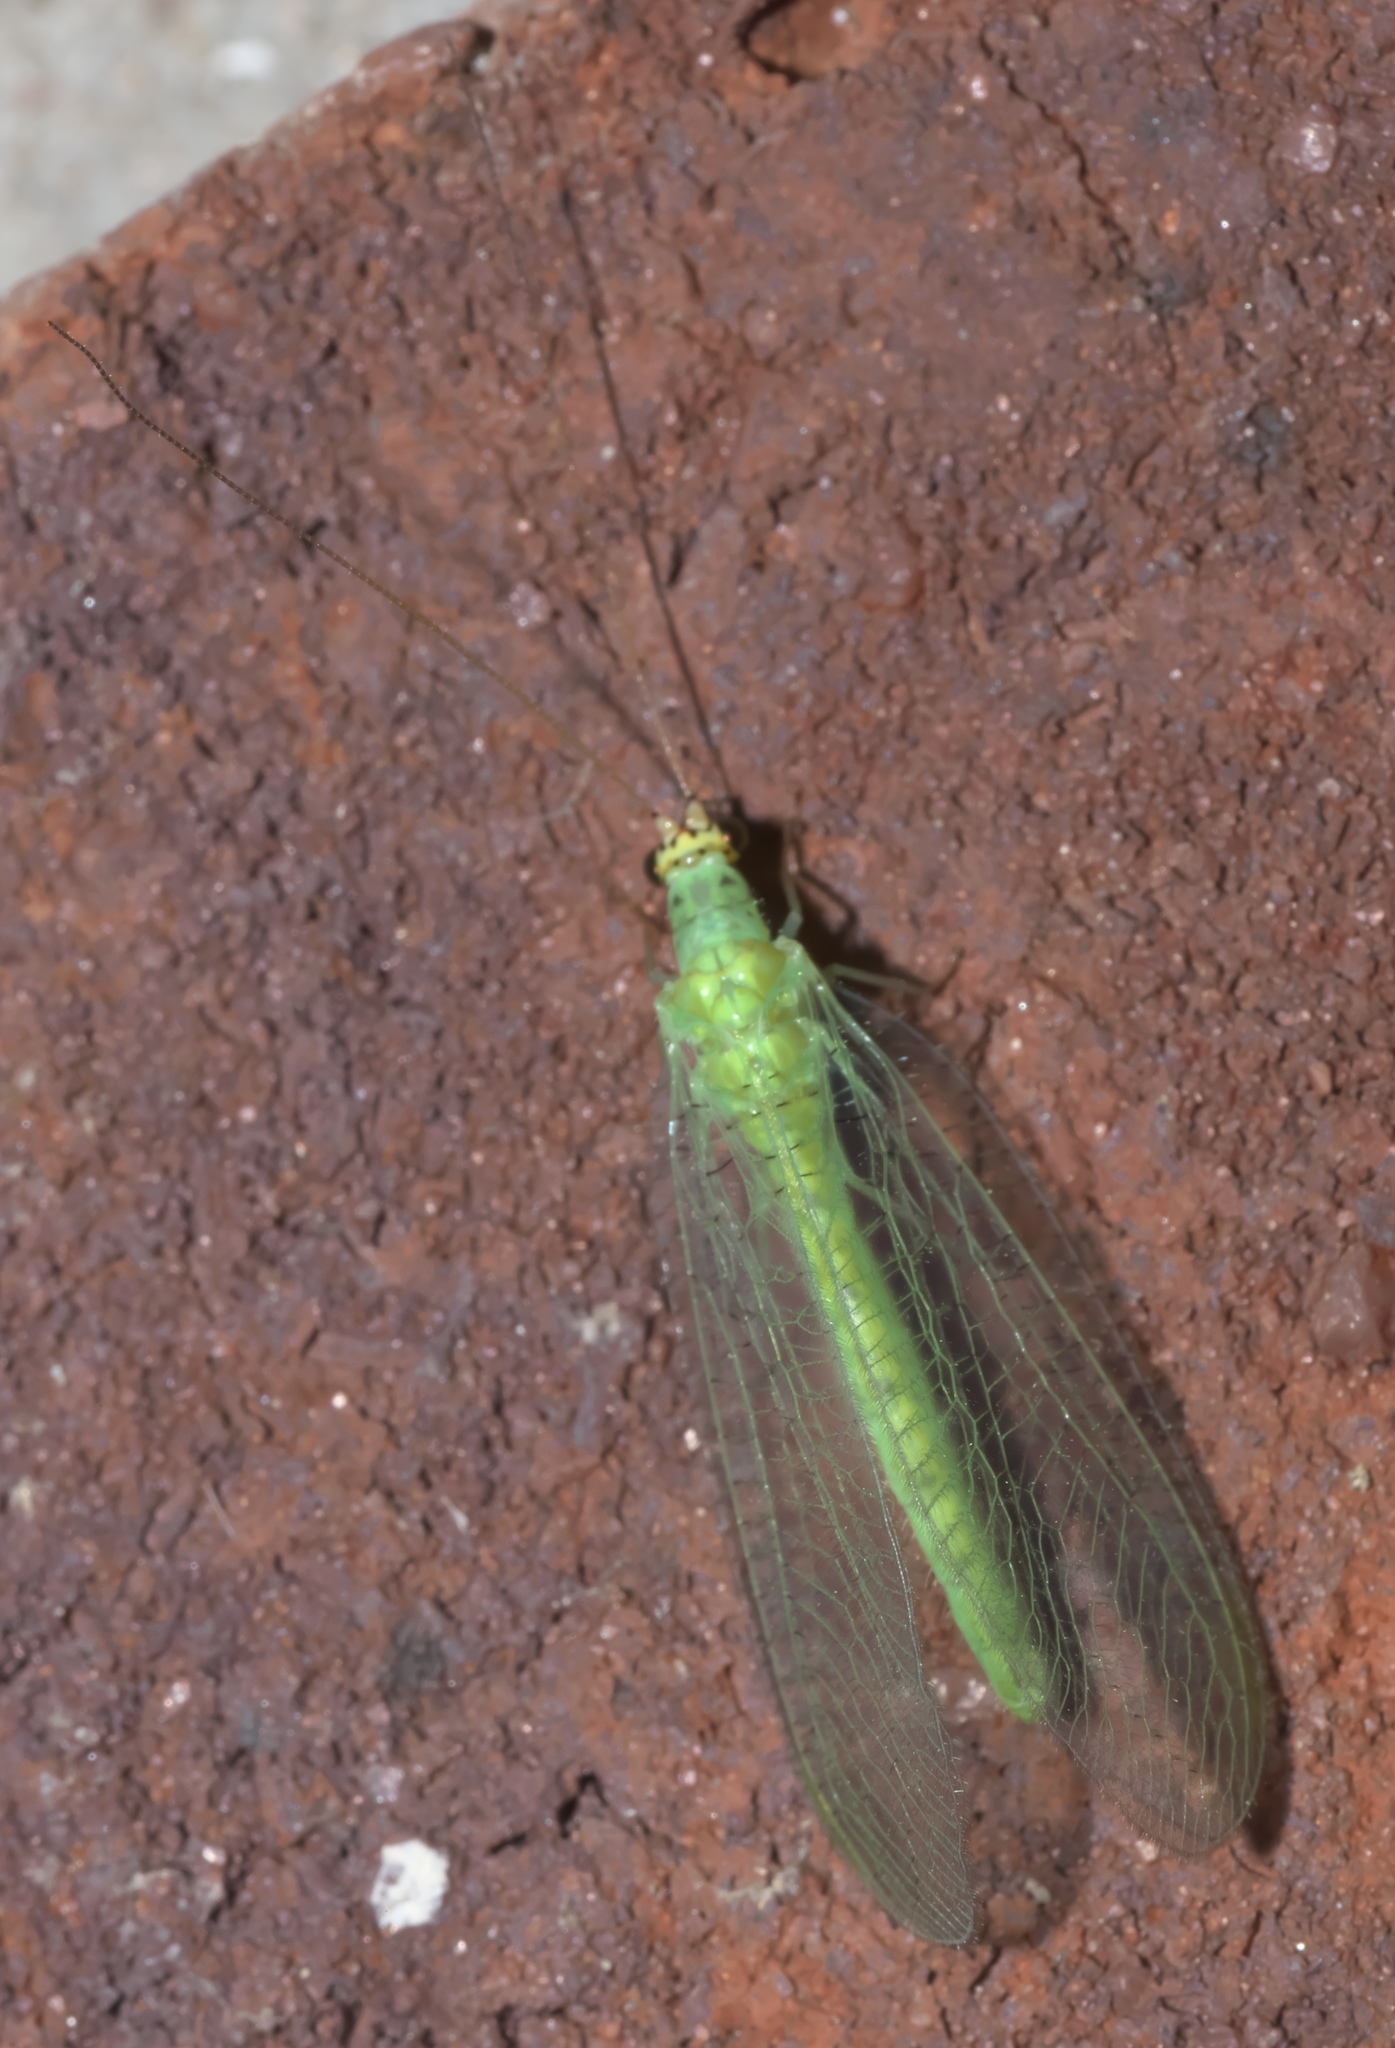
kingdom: Animalia
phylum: Arthropoda
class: Insecta
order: Neuroptera
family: Chrysopidae
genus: Chrysopa
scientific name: Chrysopa oculata
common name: Golden-eyed lacewing
